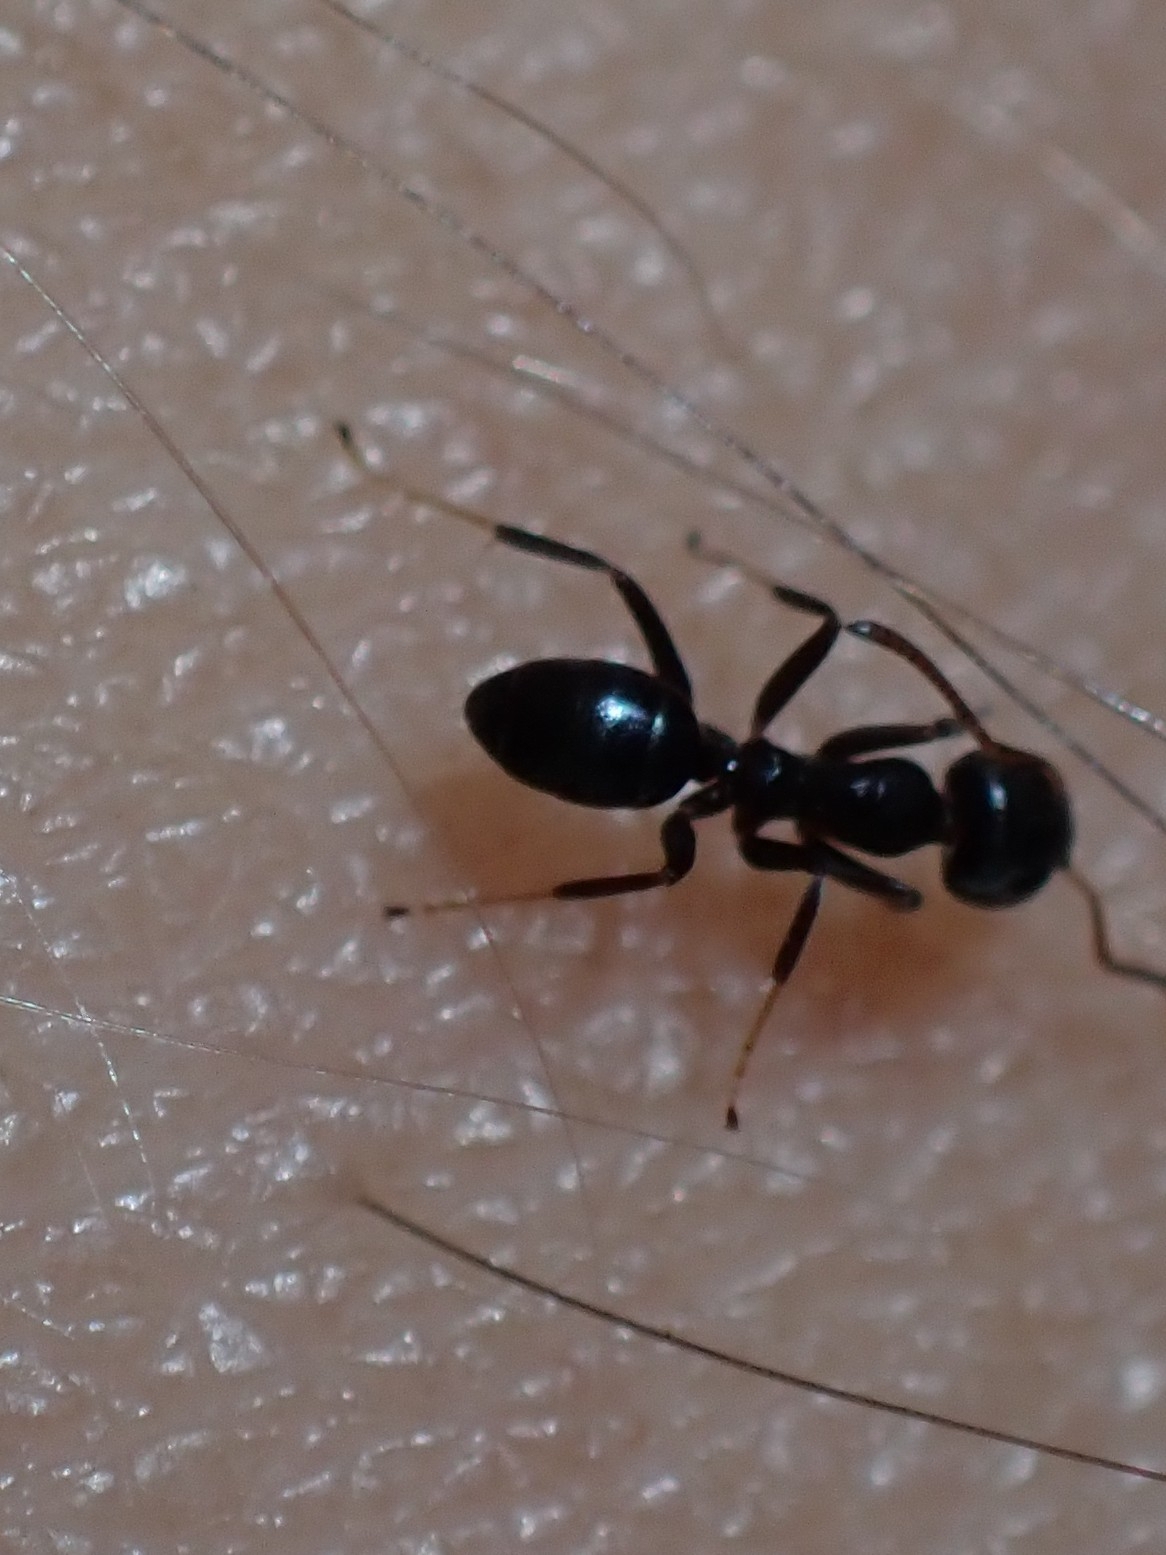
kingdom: Animalia
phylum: Arthropoda
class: Insecta
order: Hymenoptera
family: Formicidae
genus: Turneria
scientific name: Turneria dahlii
